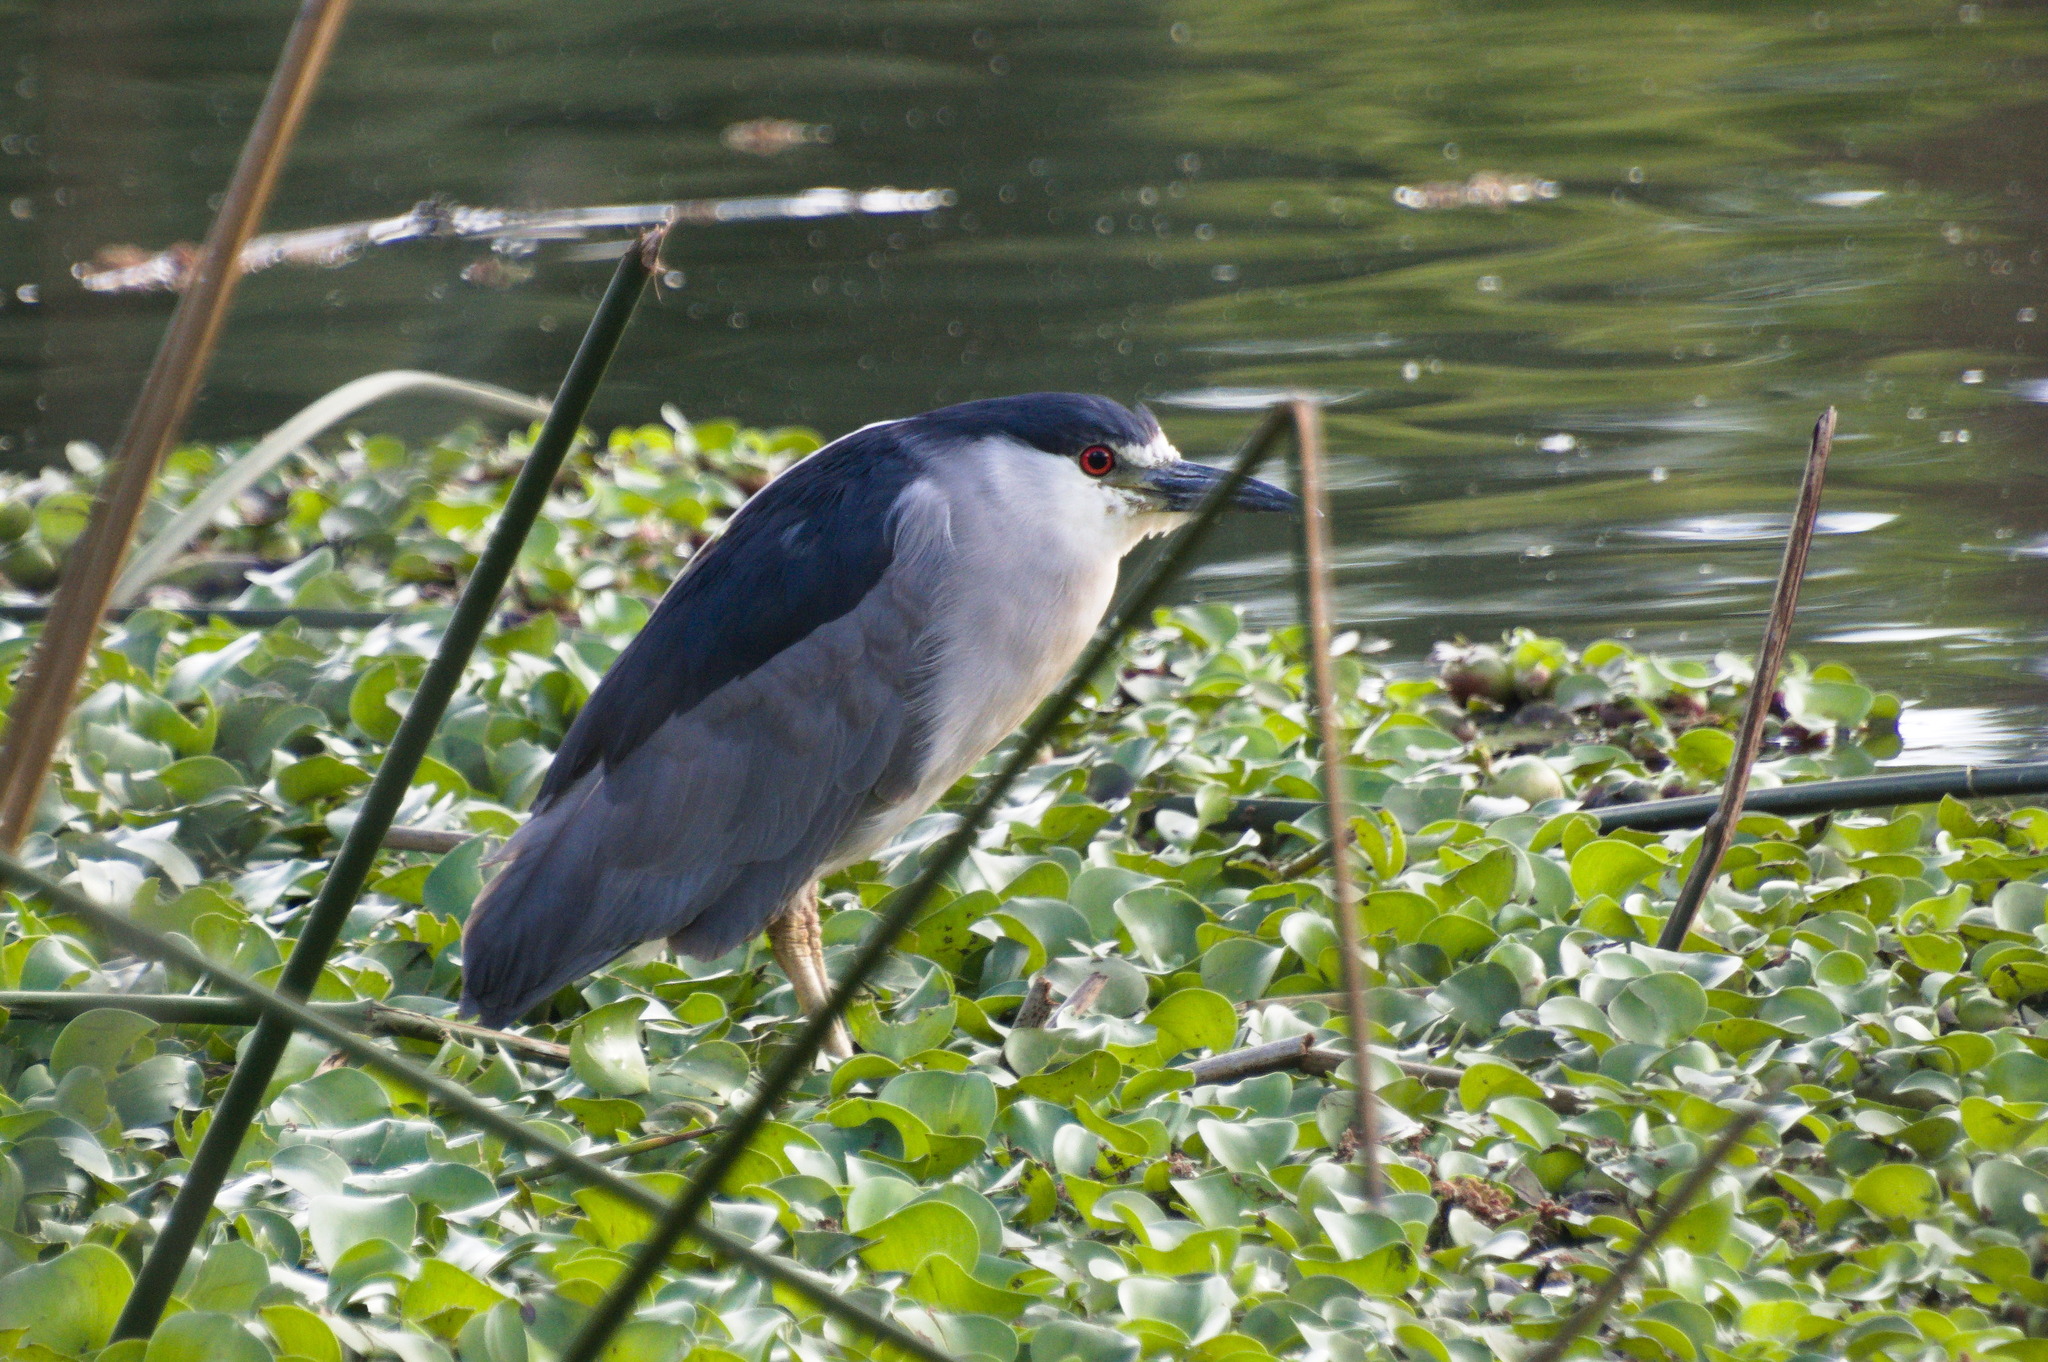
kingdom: Animalia
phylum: Chordata
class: Aves
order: Pelecaniformes
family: Ardeidae
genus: Nycticorax
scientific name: Nycticorax nycticorax
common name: Black-crowned night heron
